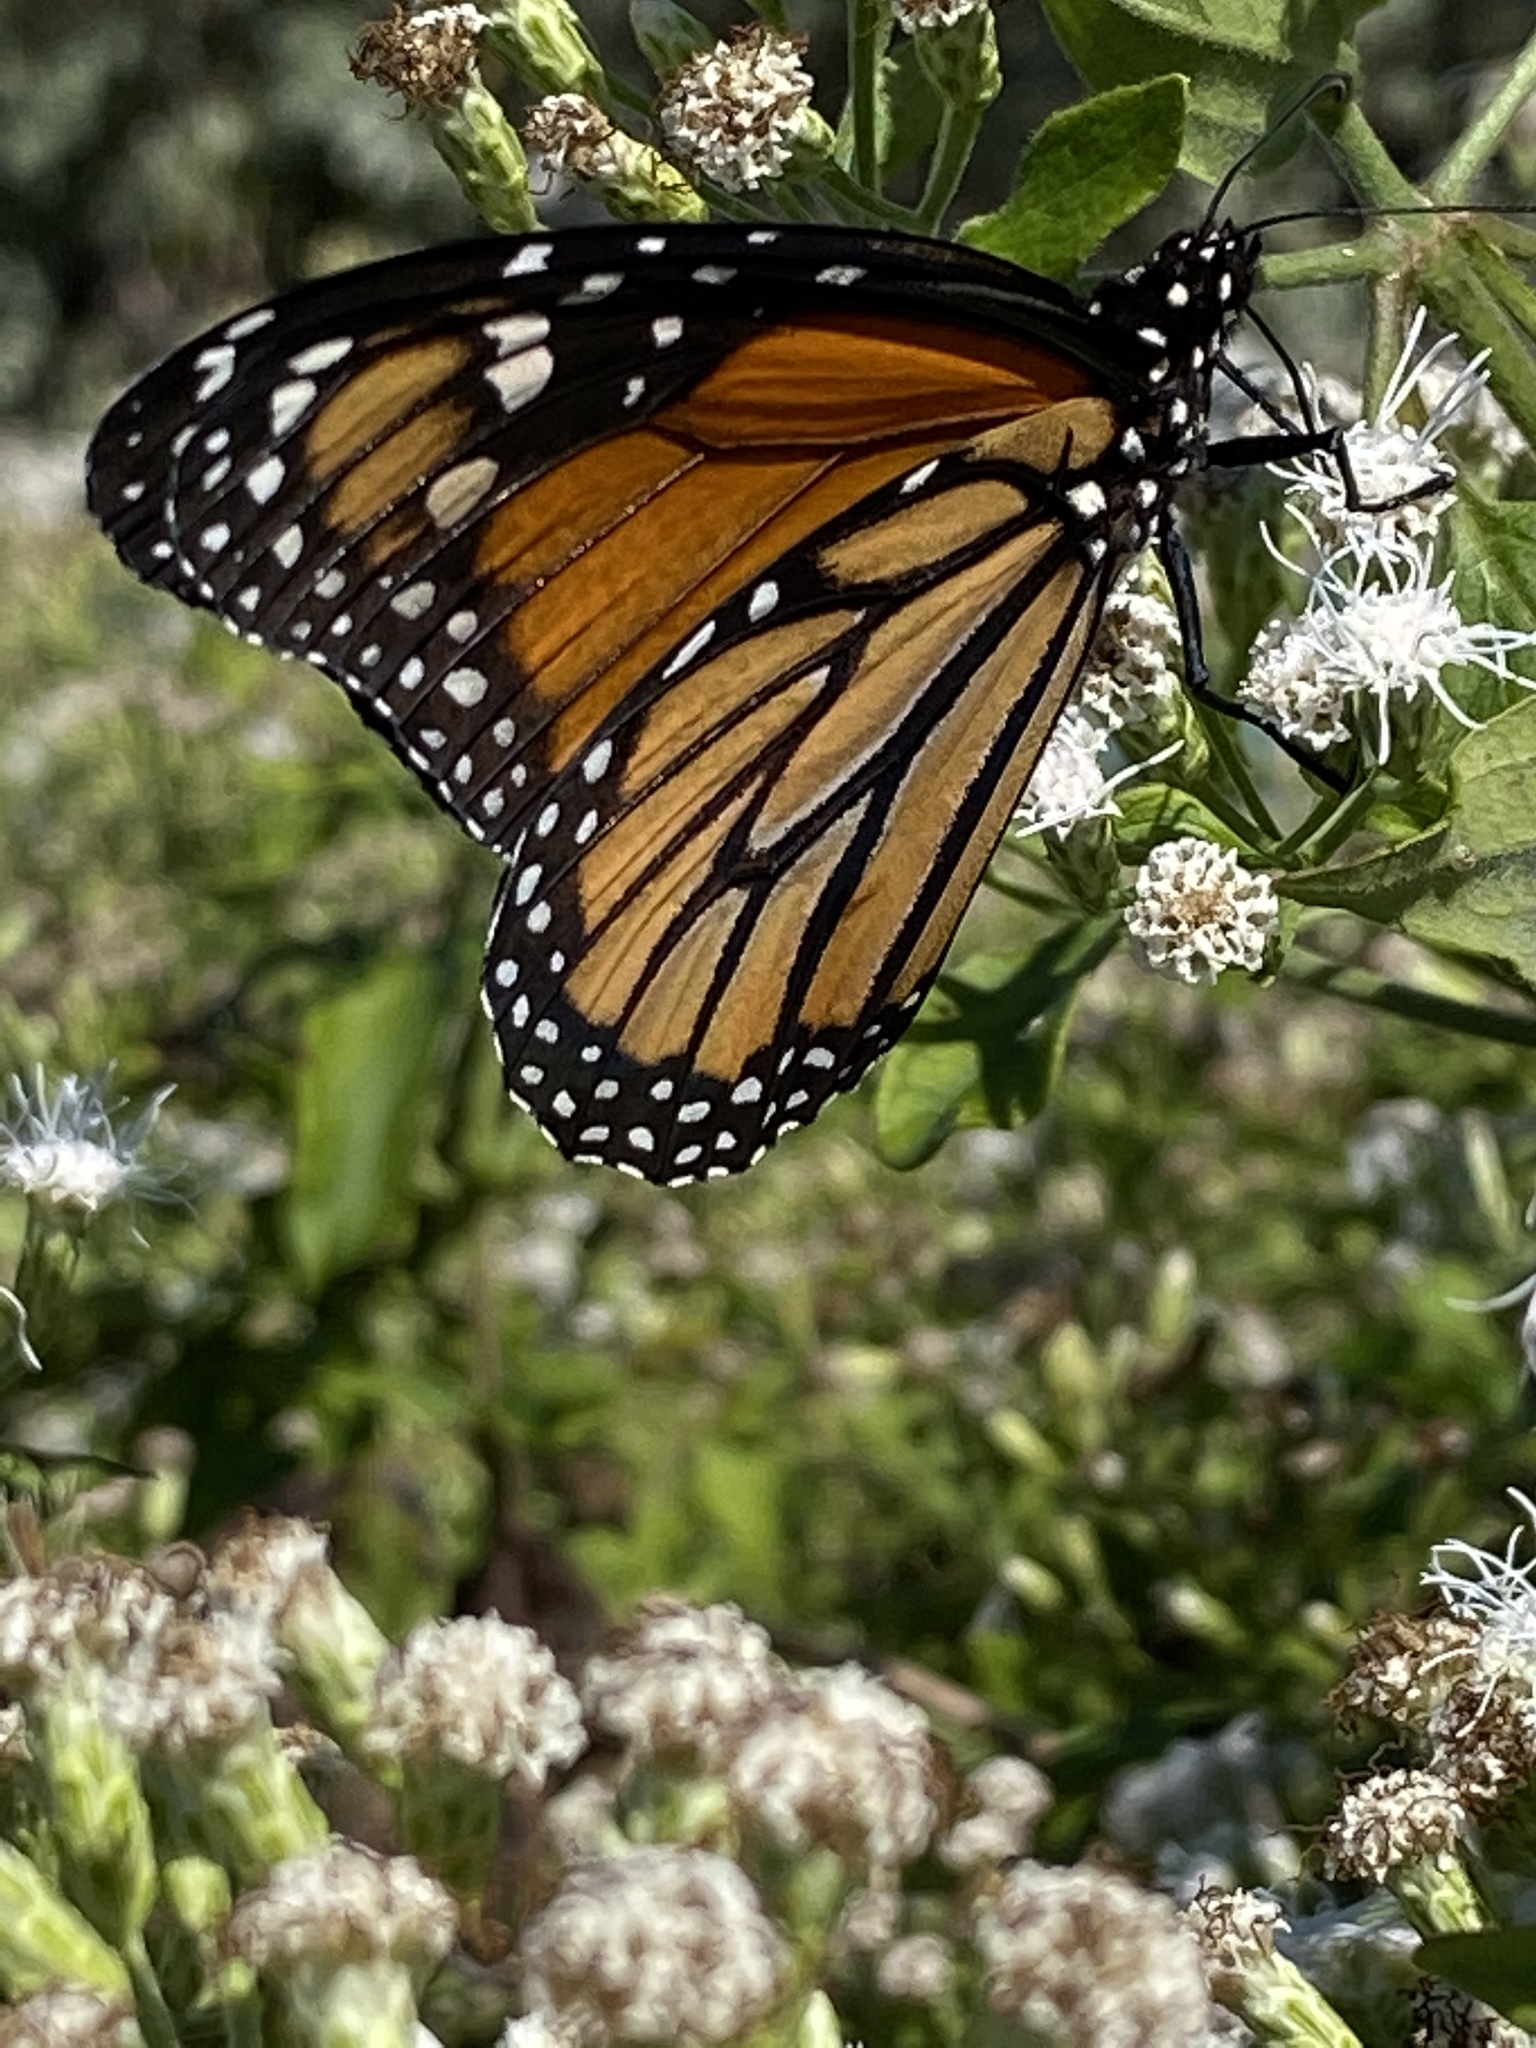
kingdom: Animalia
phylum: Arthropoda
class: Insecta
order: Lepidoptera
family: Nymphalidae
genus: Danaus
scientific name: Danaus plexippus
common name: Monarch
